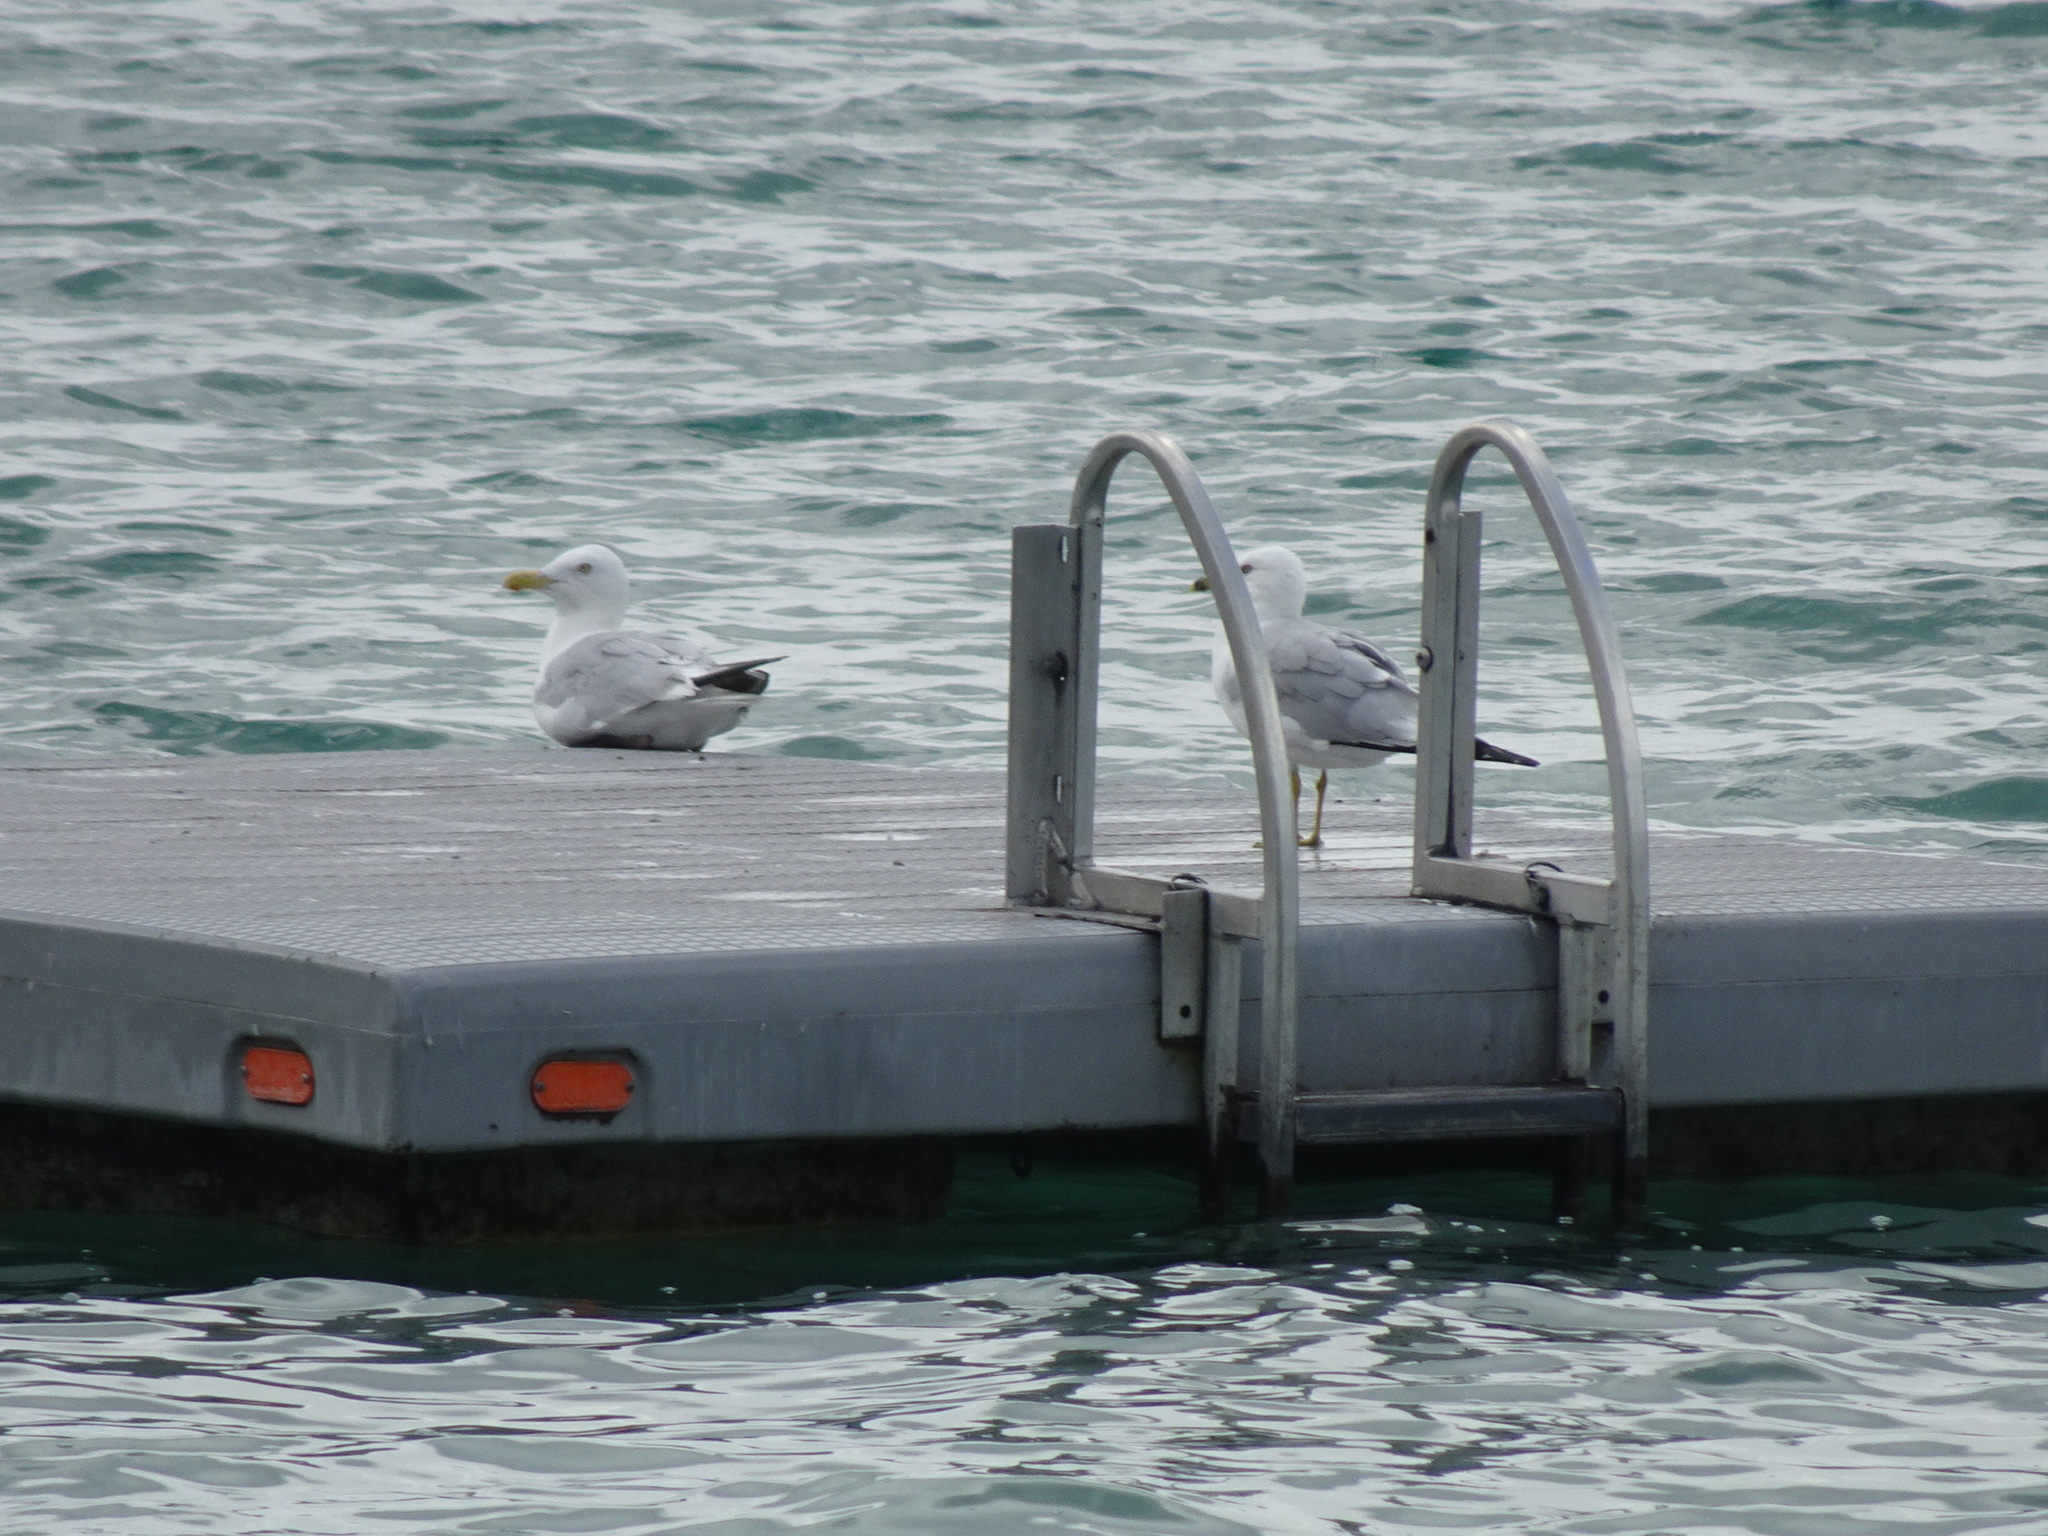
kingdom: Animalia
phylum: Chordata
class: Aves
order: Charadriiformes
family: Laridae
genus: Larus
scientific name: Larus argentatus
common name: Herring gull
